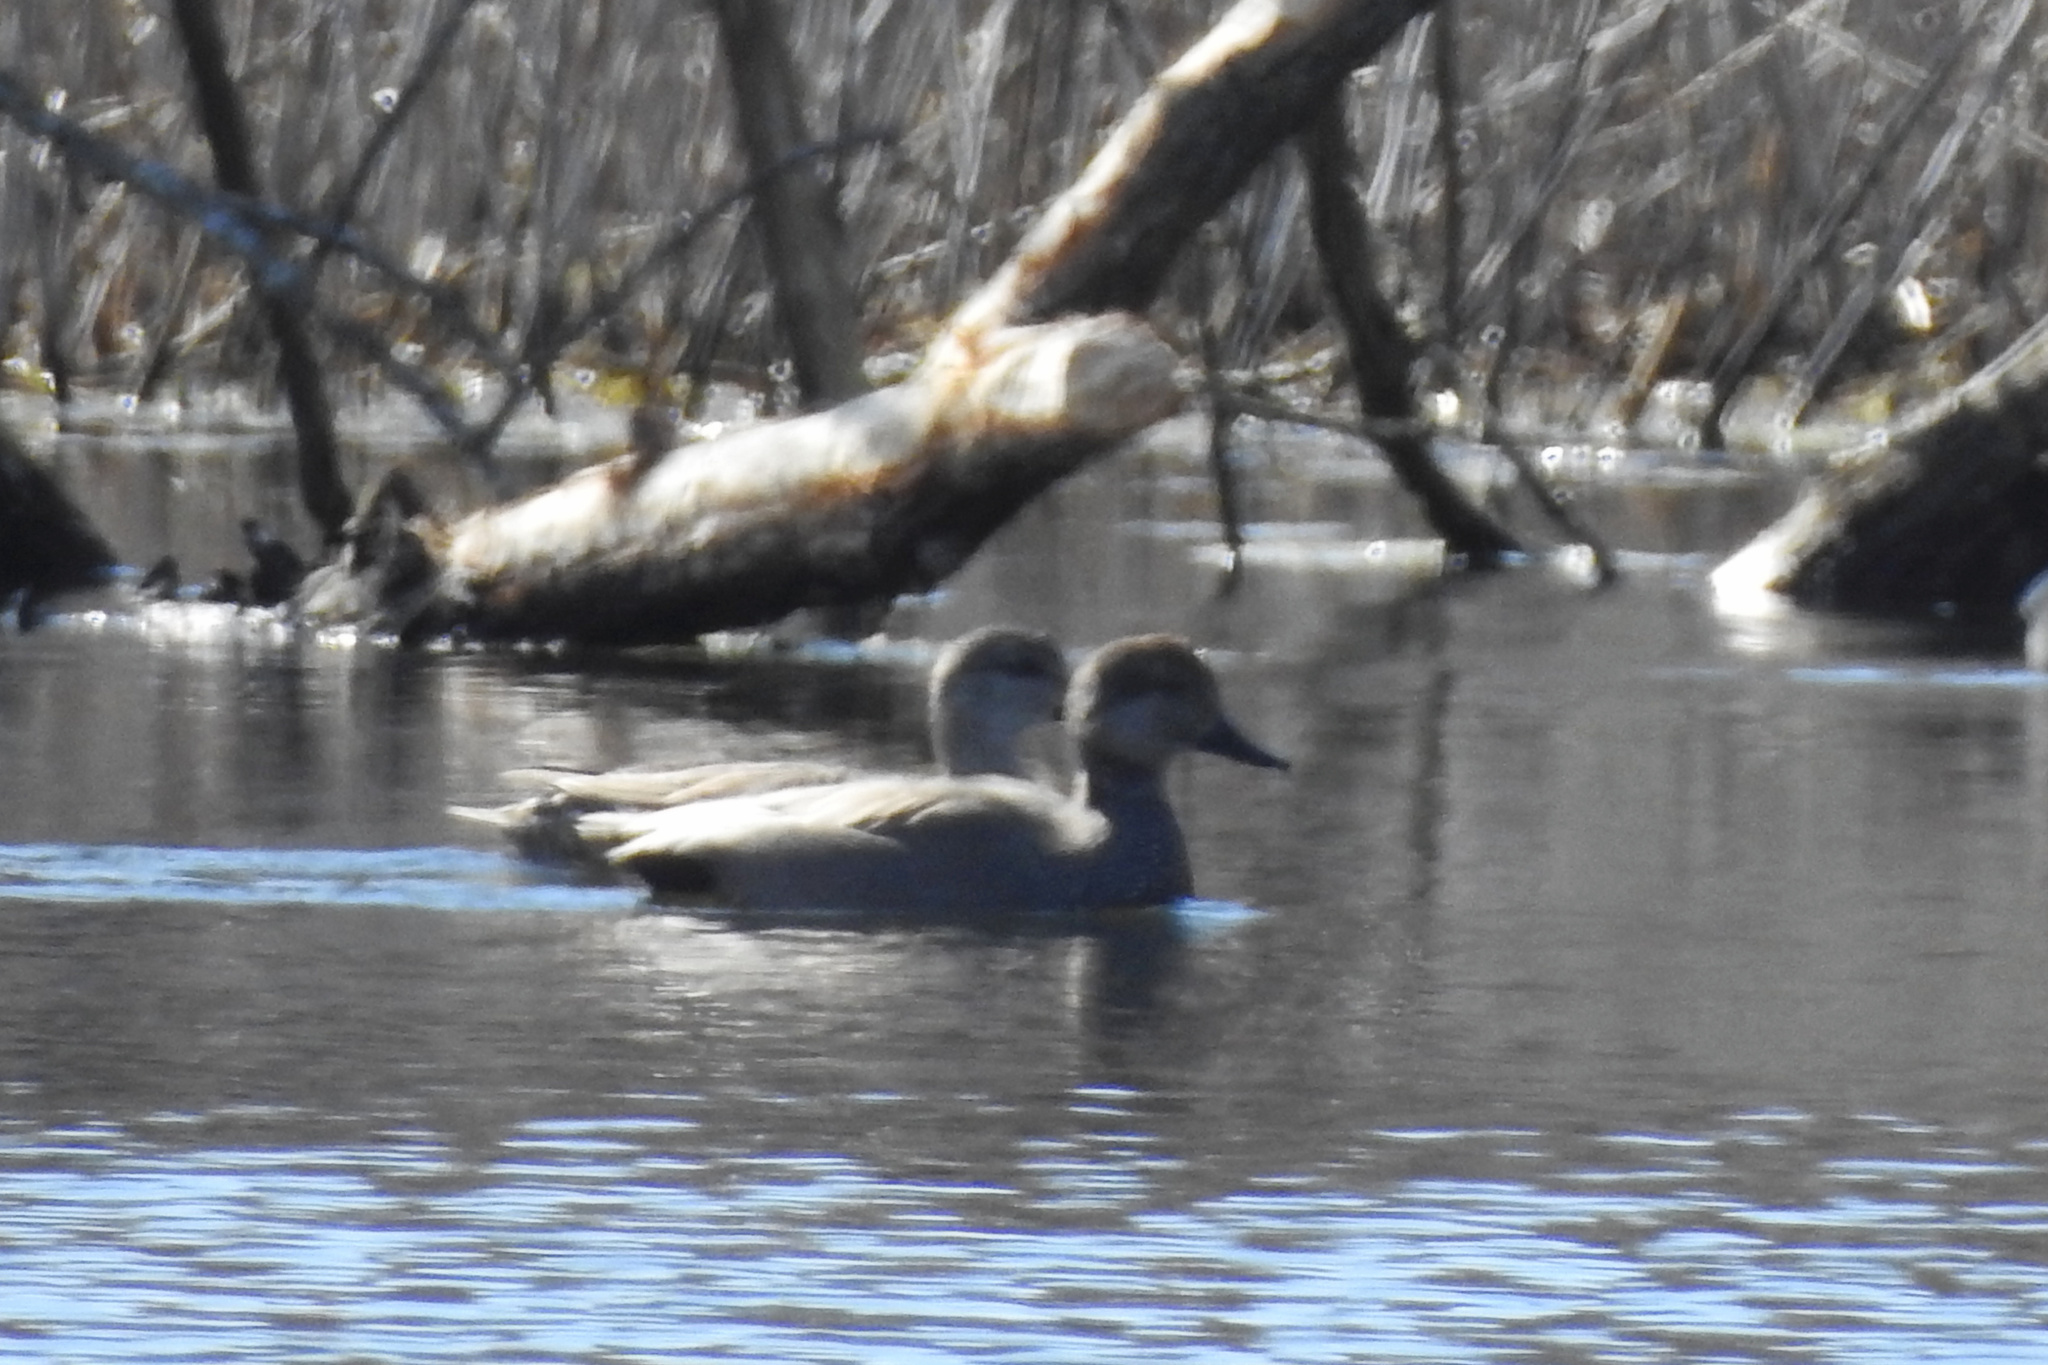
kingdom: Animalia
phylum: Chordata
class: Aves
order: Anseriformes
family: Anatidae
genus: Mareca
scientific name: Mareca strepera
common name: Gadwall
